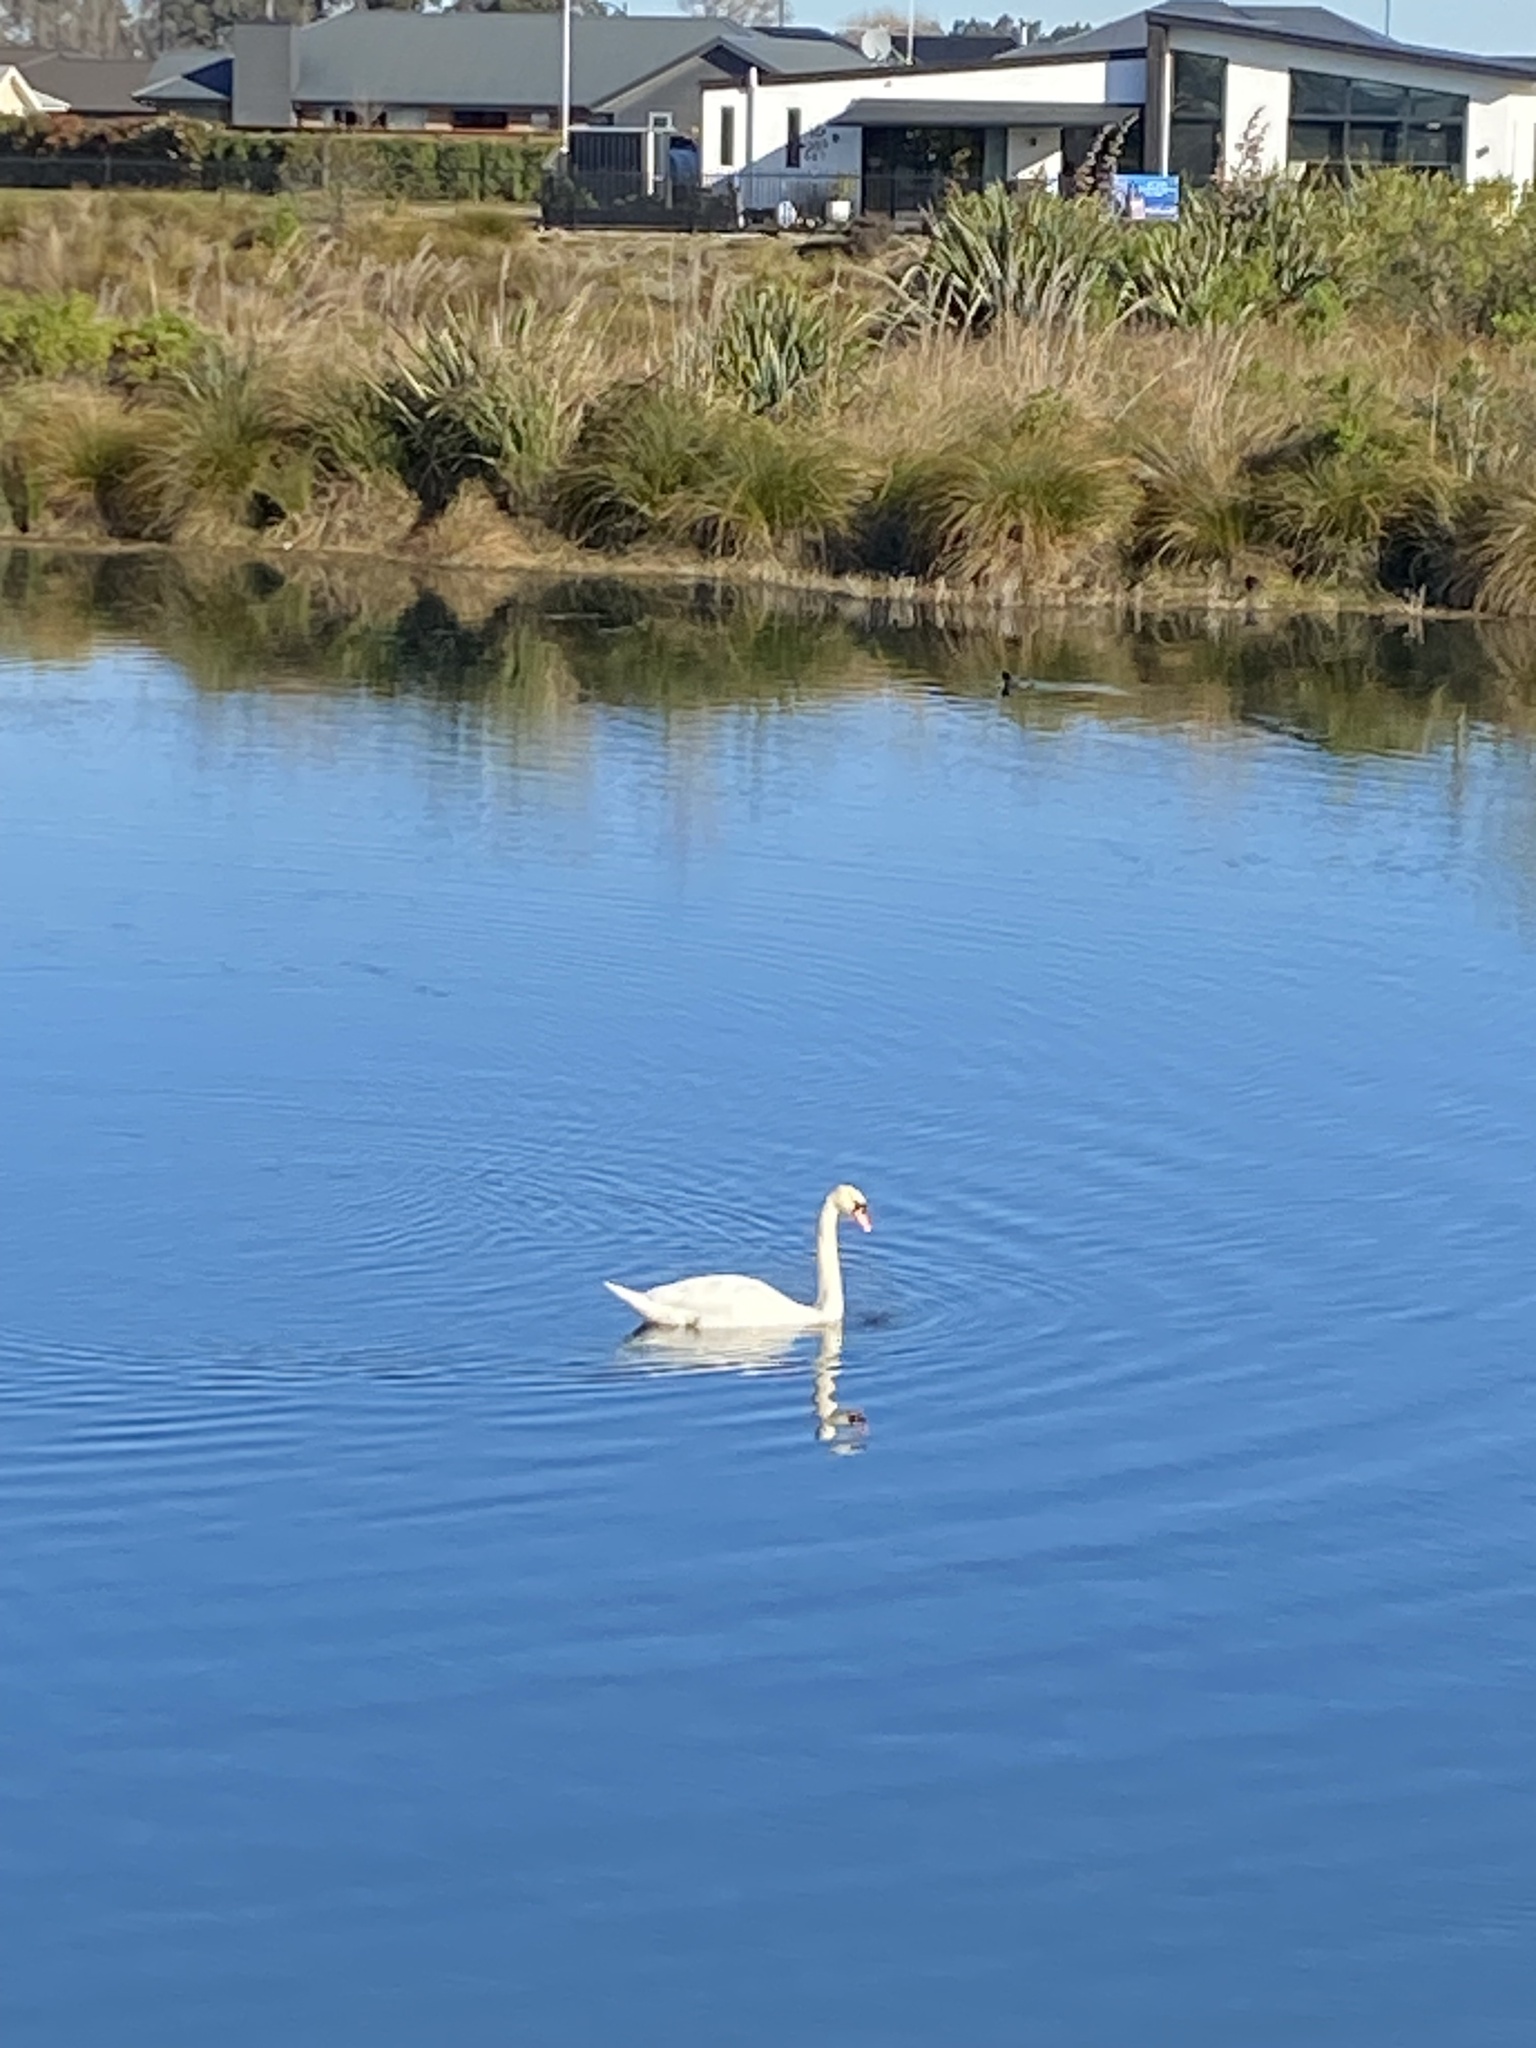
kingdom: Animalia
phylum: Chordata
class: Aves
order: Anseriformes
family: Anatidae
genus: Cygnus
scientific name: Cygnus olor
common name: Mute swan
